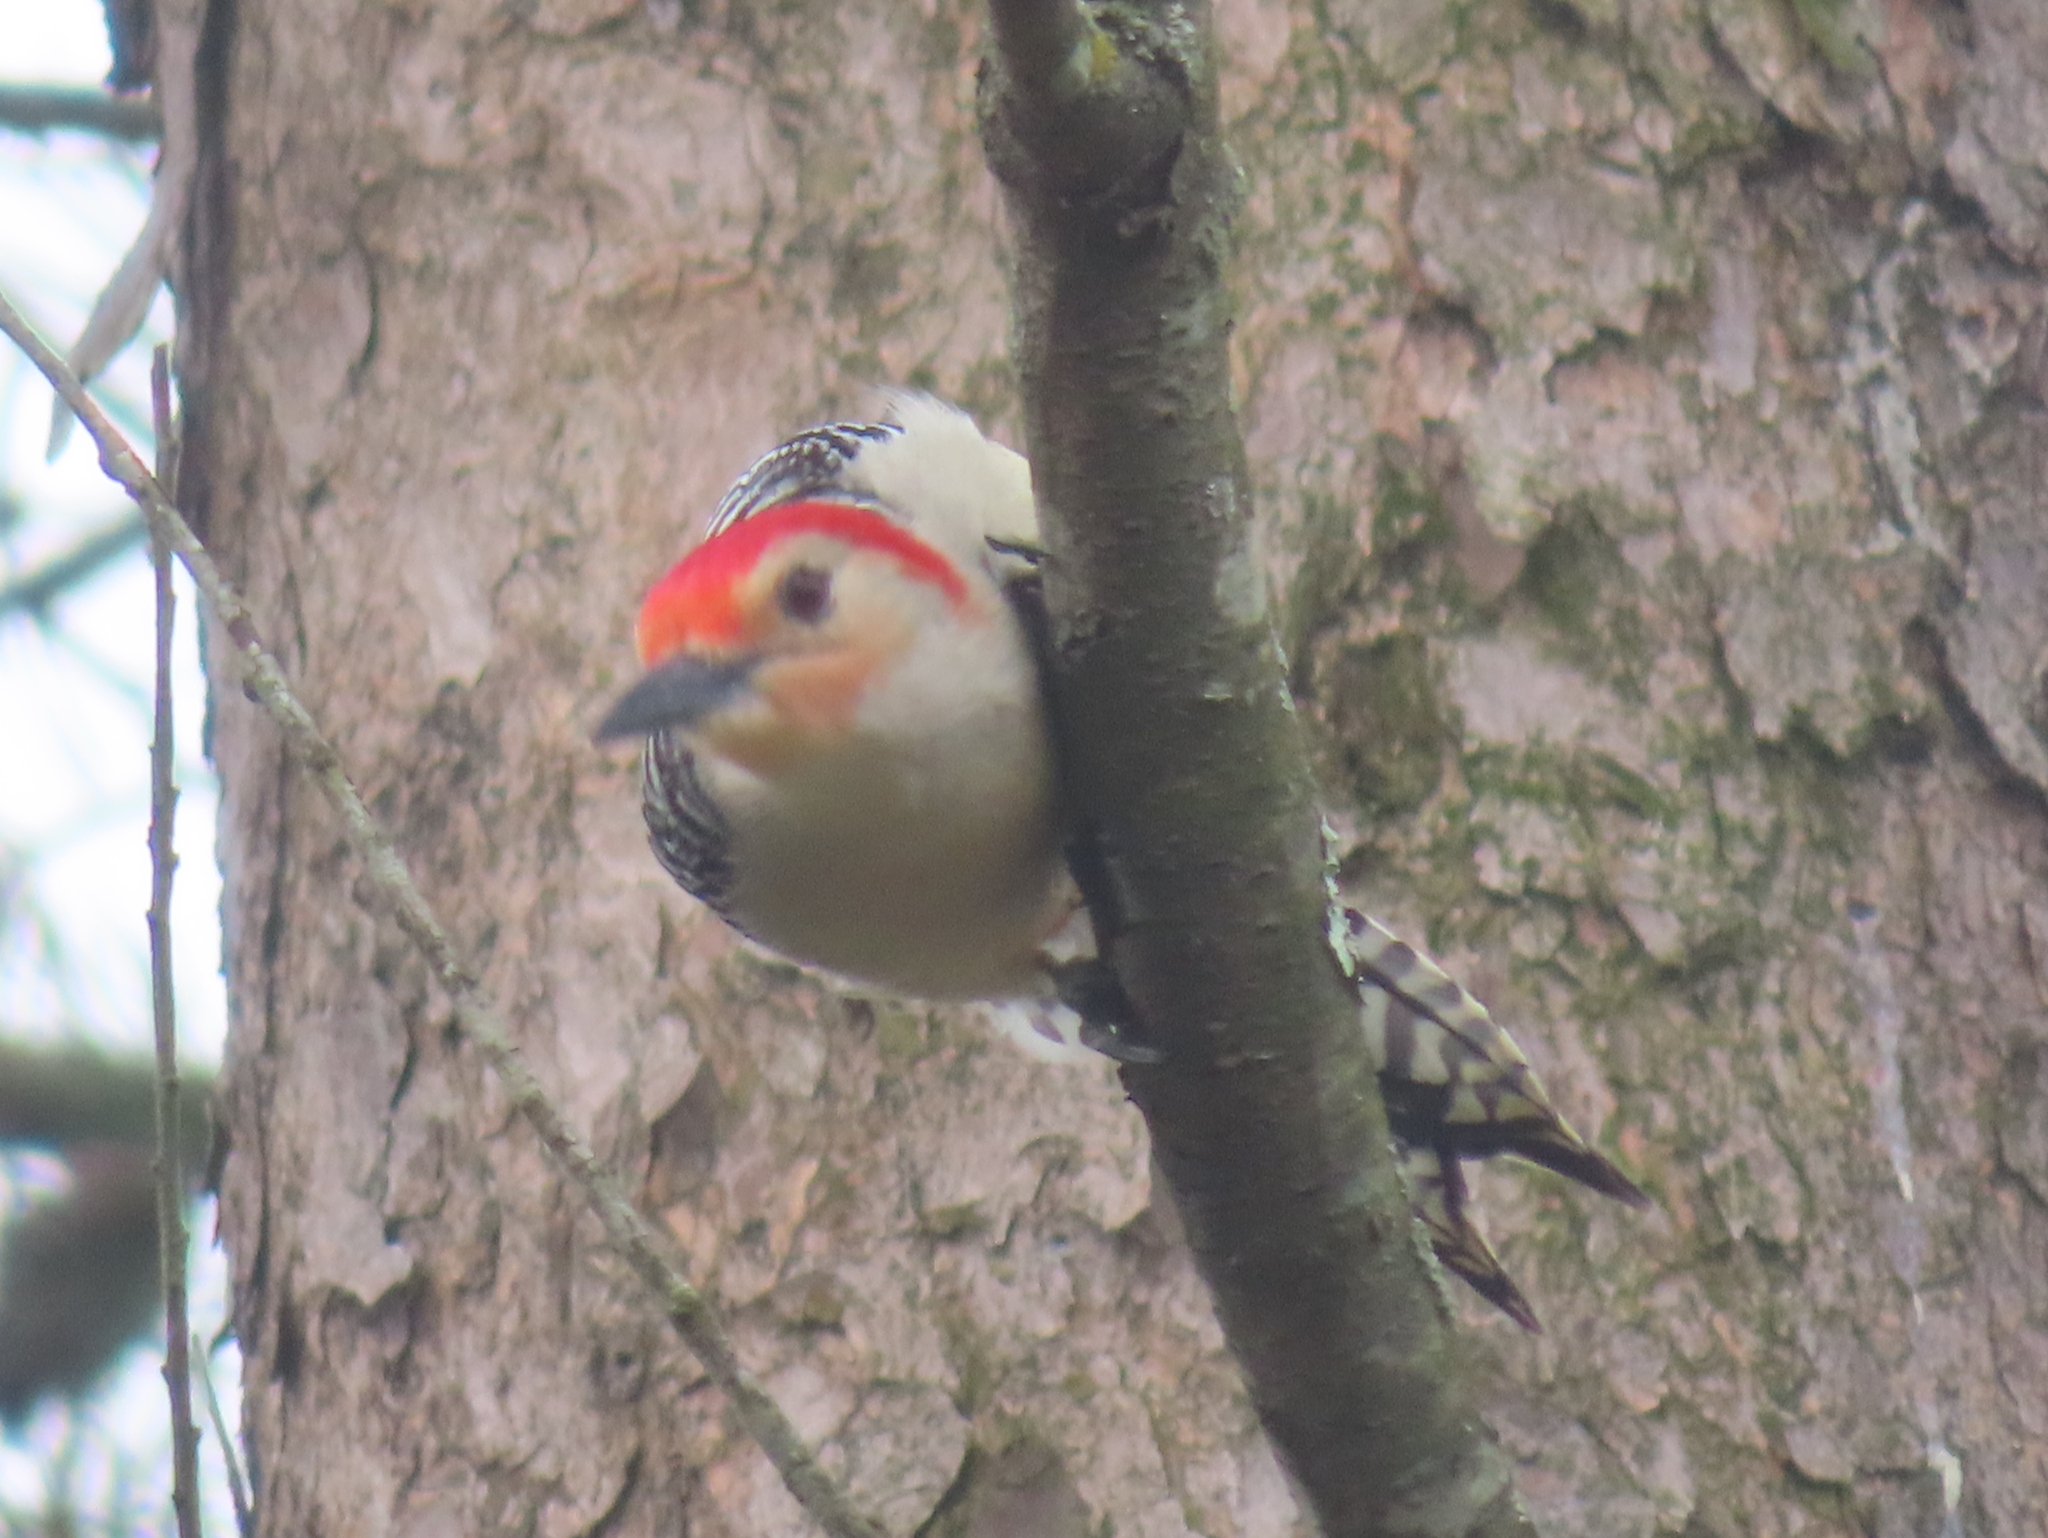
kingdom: Animalia
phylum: Chordata
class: Aves
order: Piciformes
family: Picidae
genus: Melanerpes
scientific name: Melanerpes carolinus
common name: Red-bellied woodpecker
